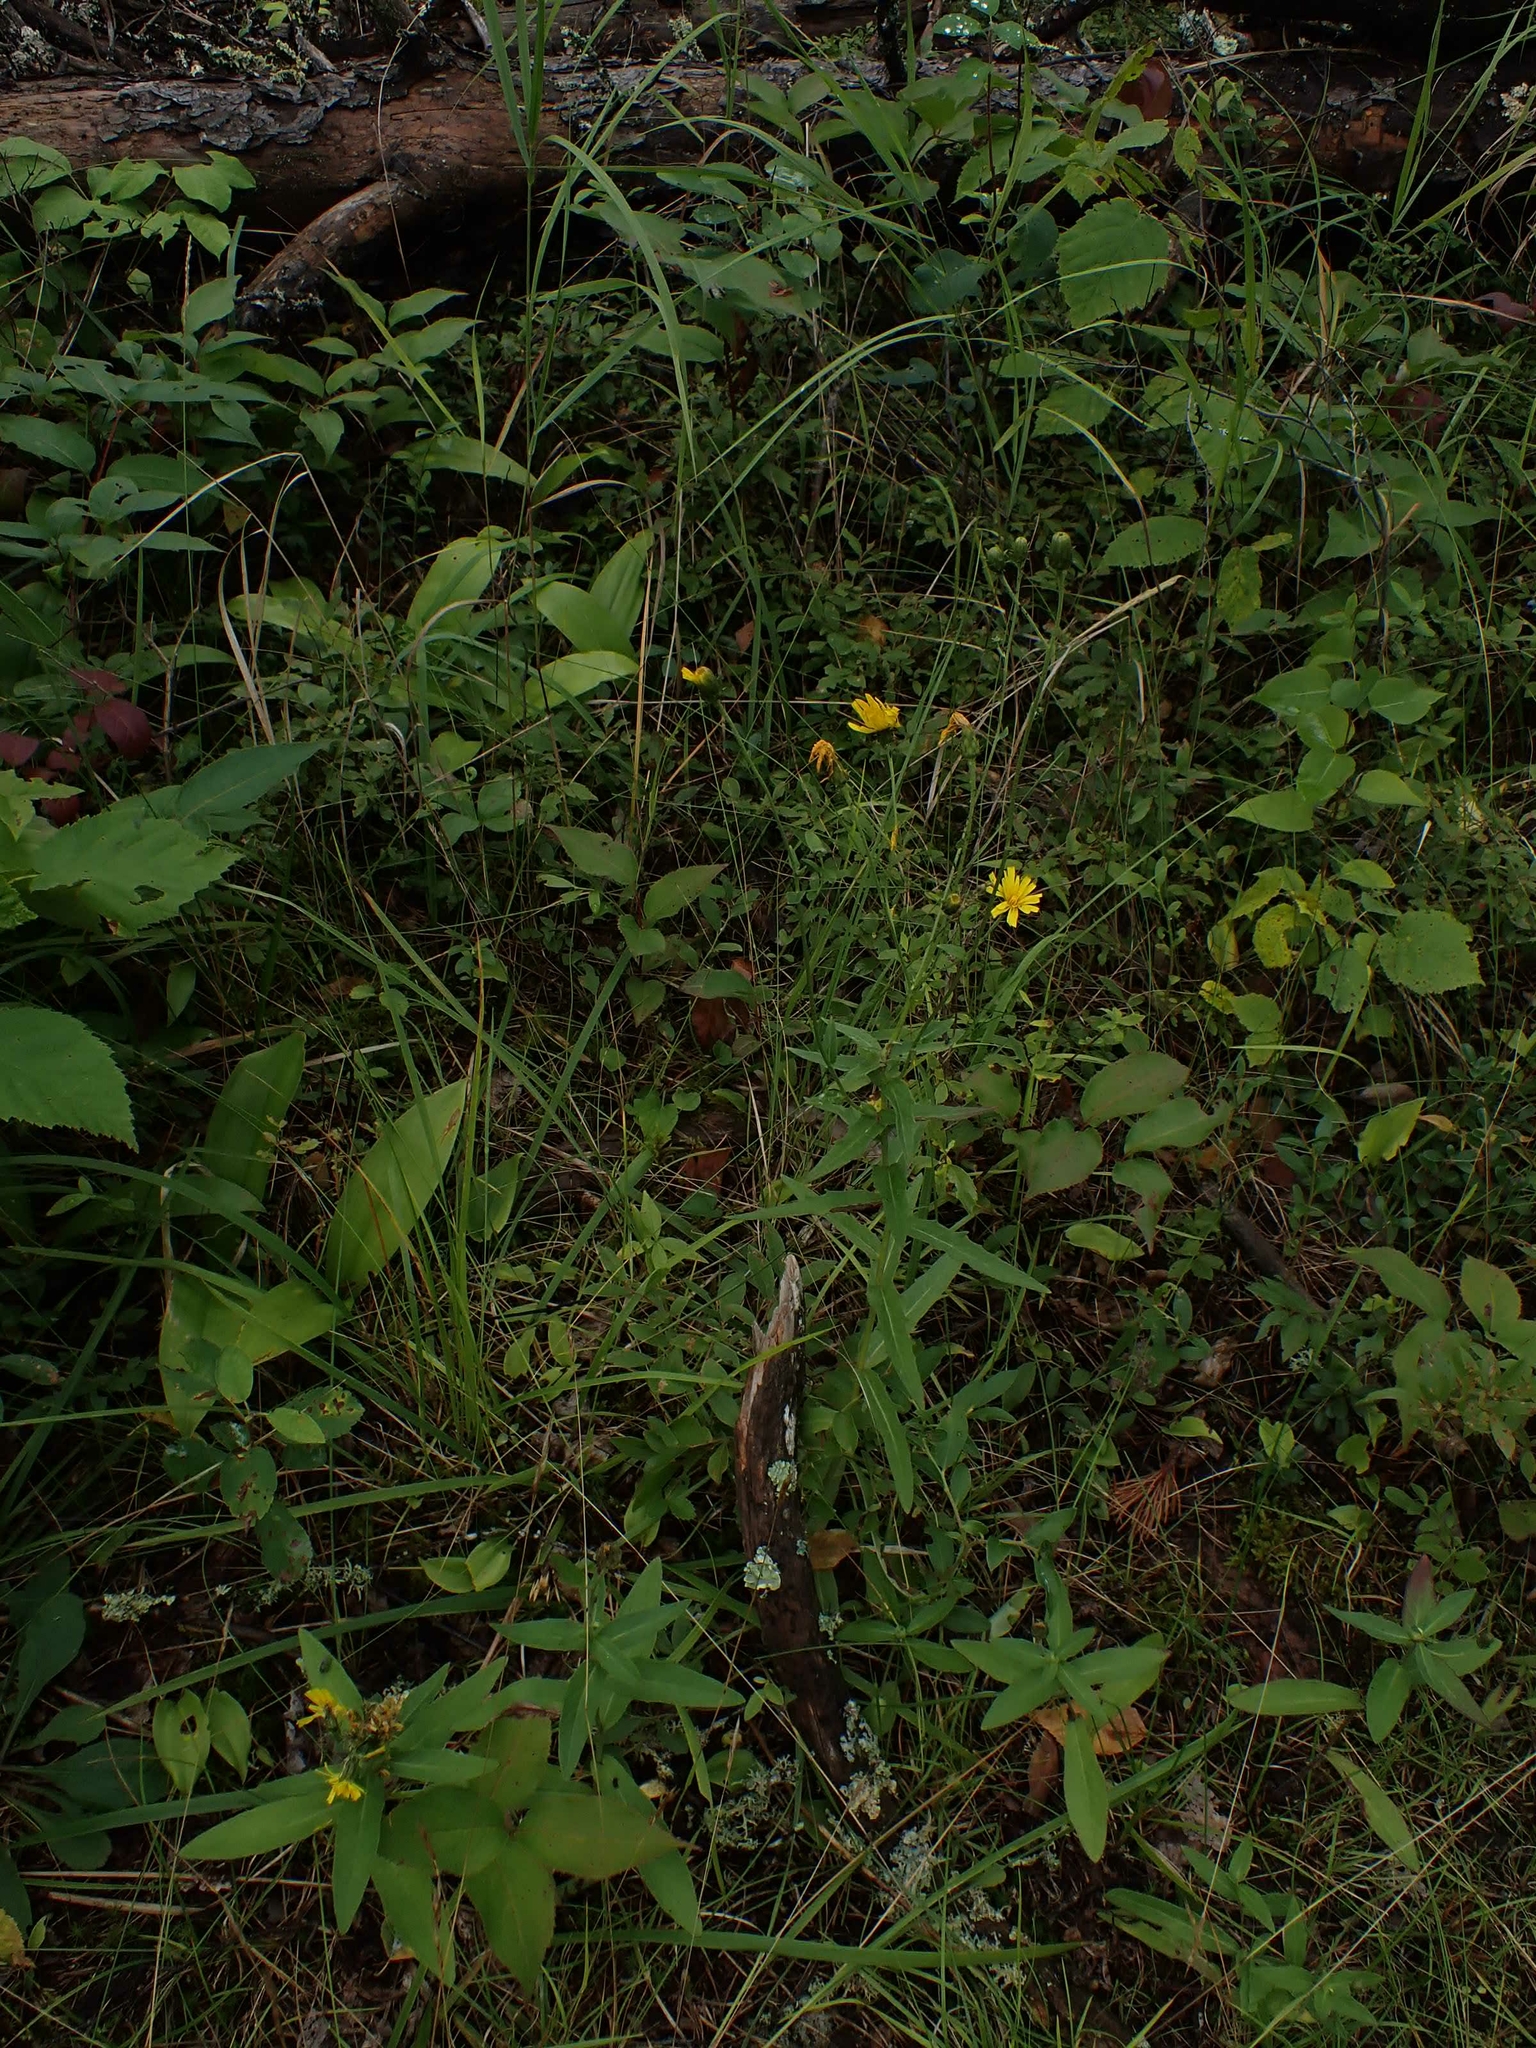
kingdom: Plantae
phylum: Tracheophyta
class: Magnoliopsida
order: Asterales
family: Asteraceae
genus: Hieracium
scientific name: Hieracium umbellatum
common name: Northern hawkweed
